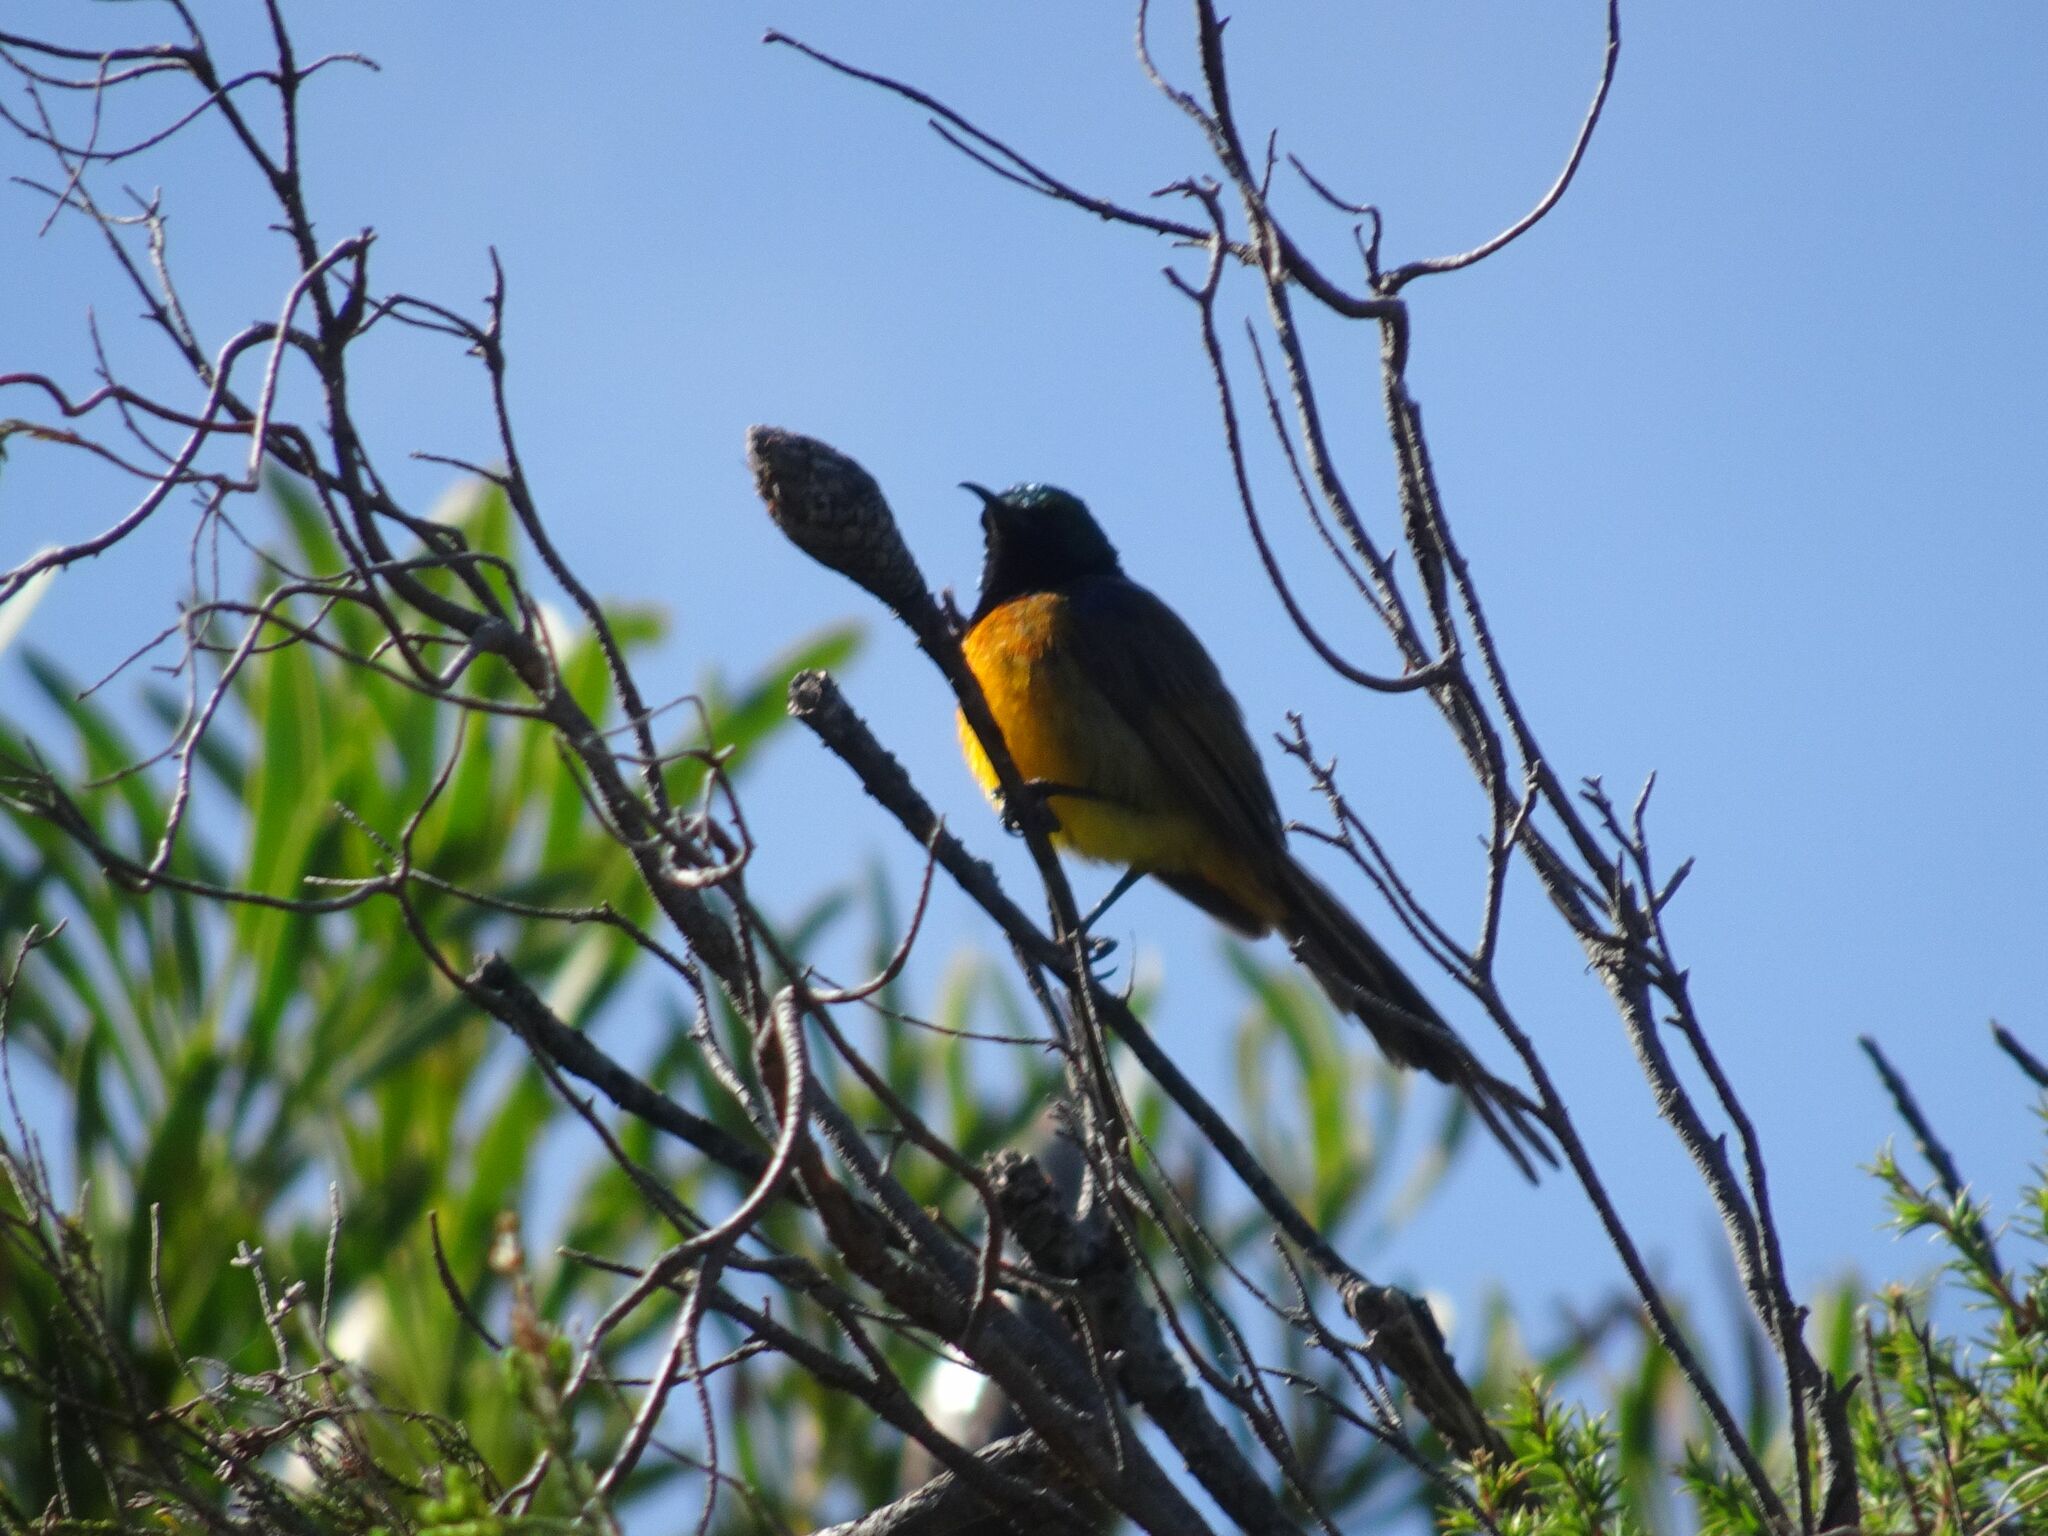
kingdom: Animalia
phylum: Chordata
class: Aves
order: Passeriformes
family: Nectariniidae
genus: Anthobaphes
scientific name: Anthobaphes violacea
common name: Orange-breasted sunbird
